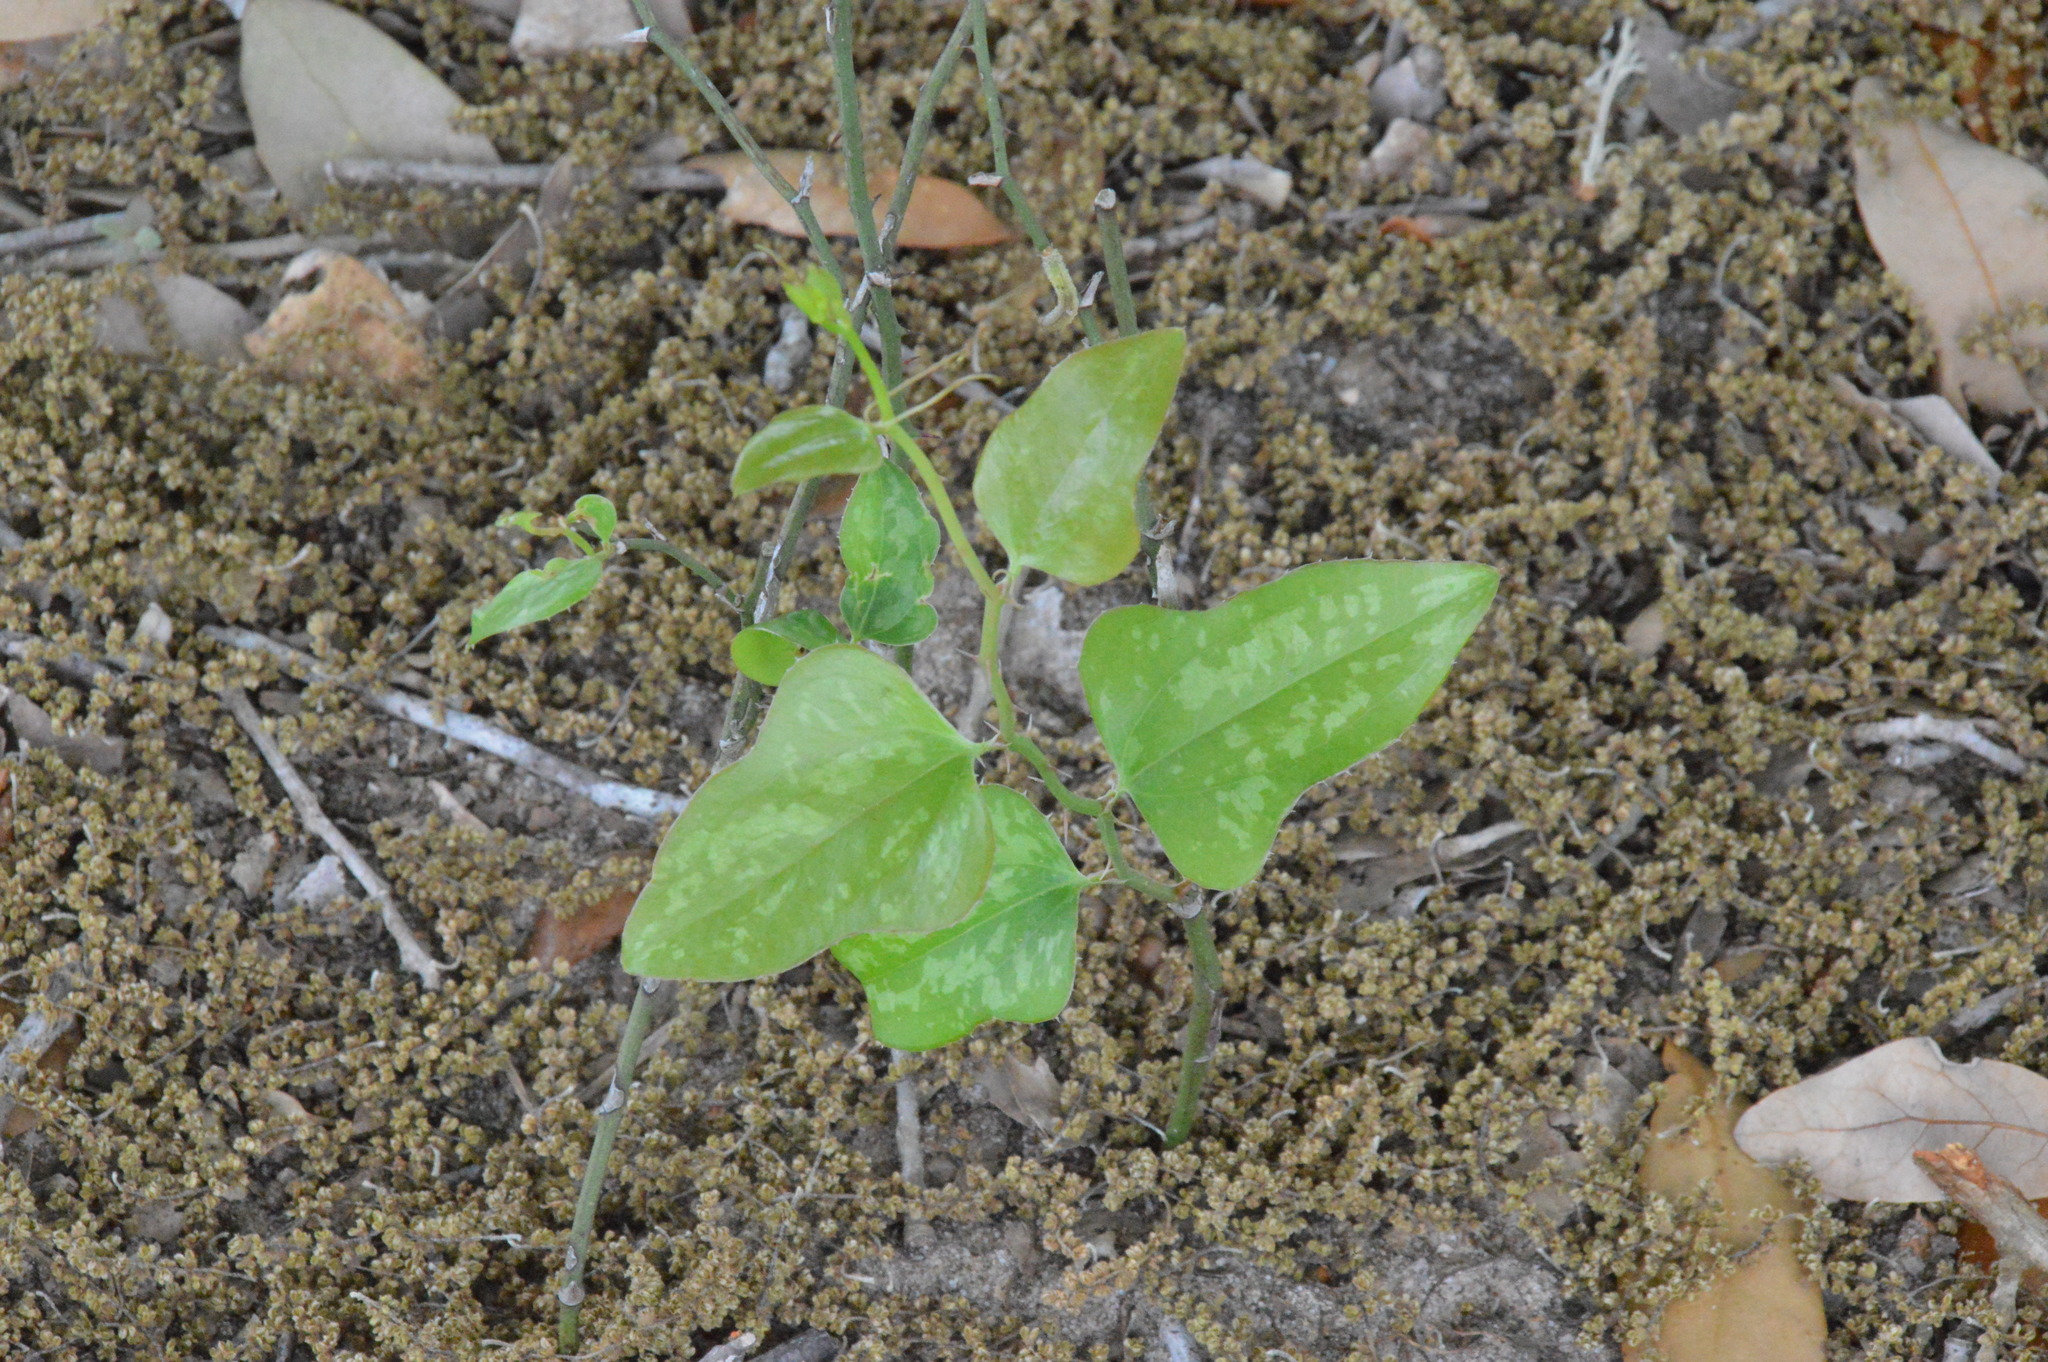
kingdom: Plantae
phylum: Tracheophyta
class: Liliopsida
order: Liliales
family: Smilacaceae
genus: Smilax
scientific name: Smilax bona-nox
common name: Catbrier
